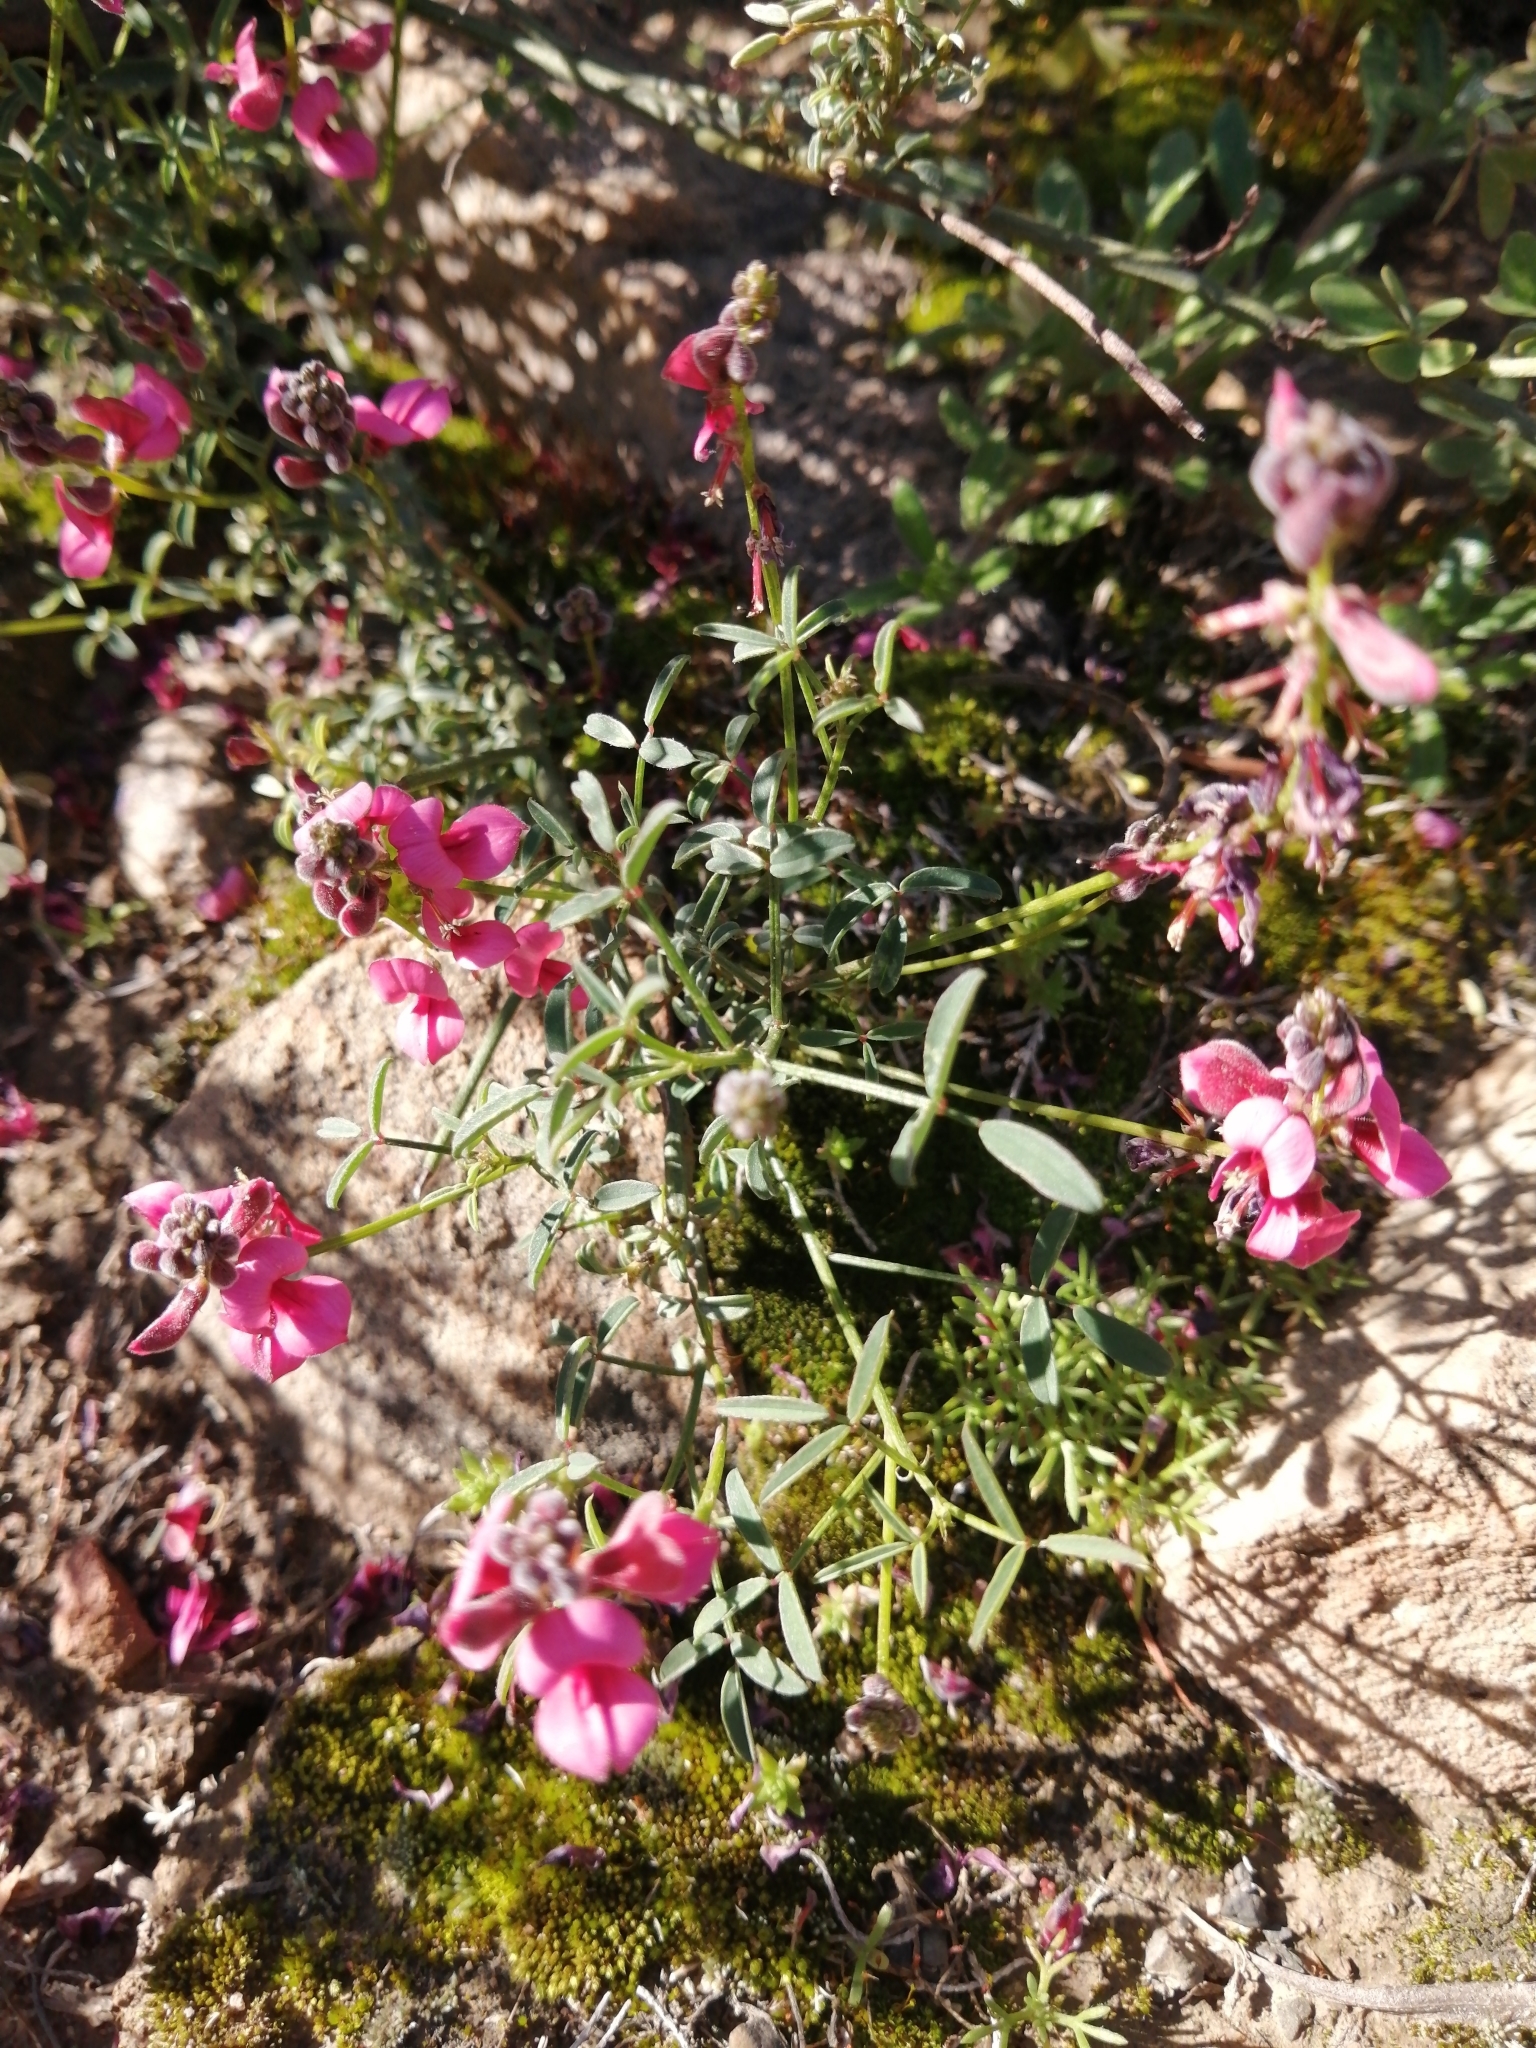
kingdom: Plantae
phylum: Tracheophyta
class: Magnoliopsida
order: Fabales
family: Fabaceae
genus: Indigofera
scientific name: Indigofera heterophylla
